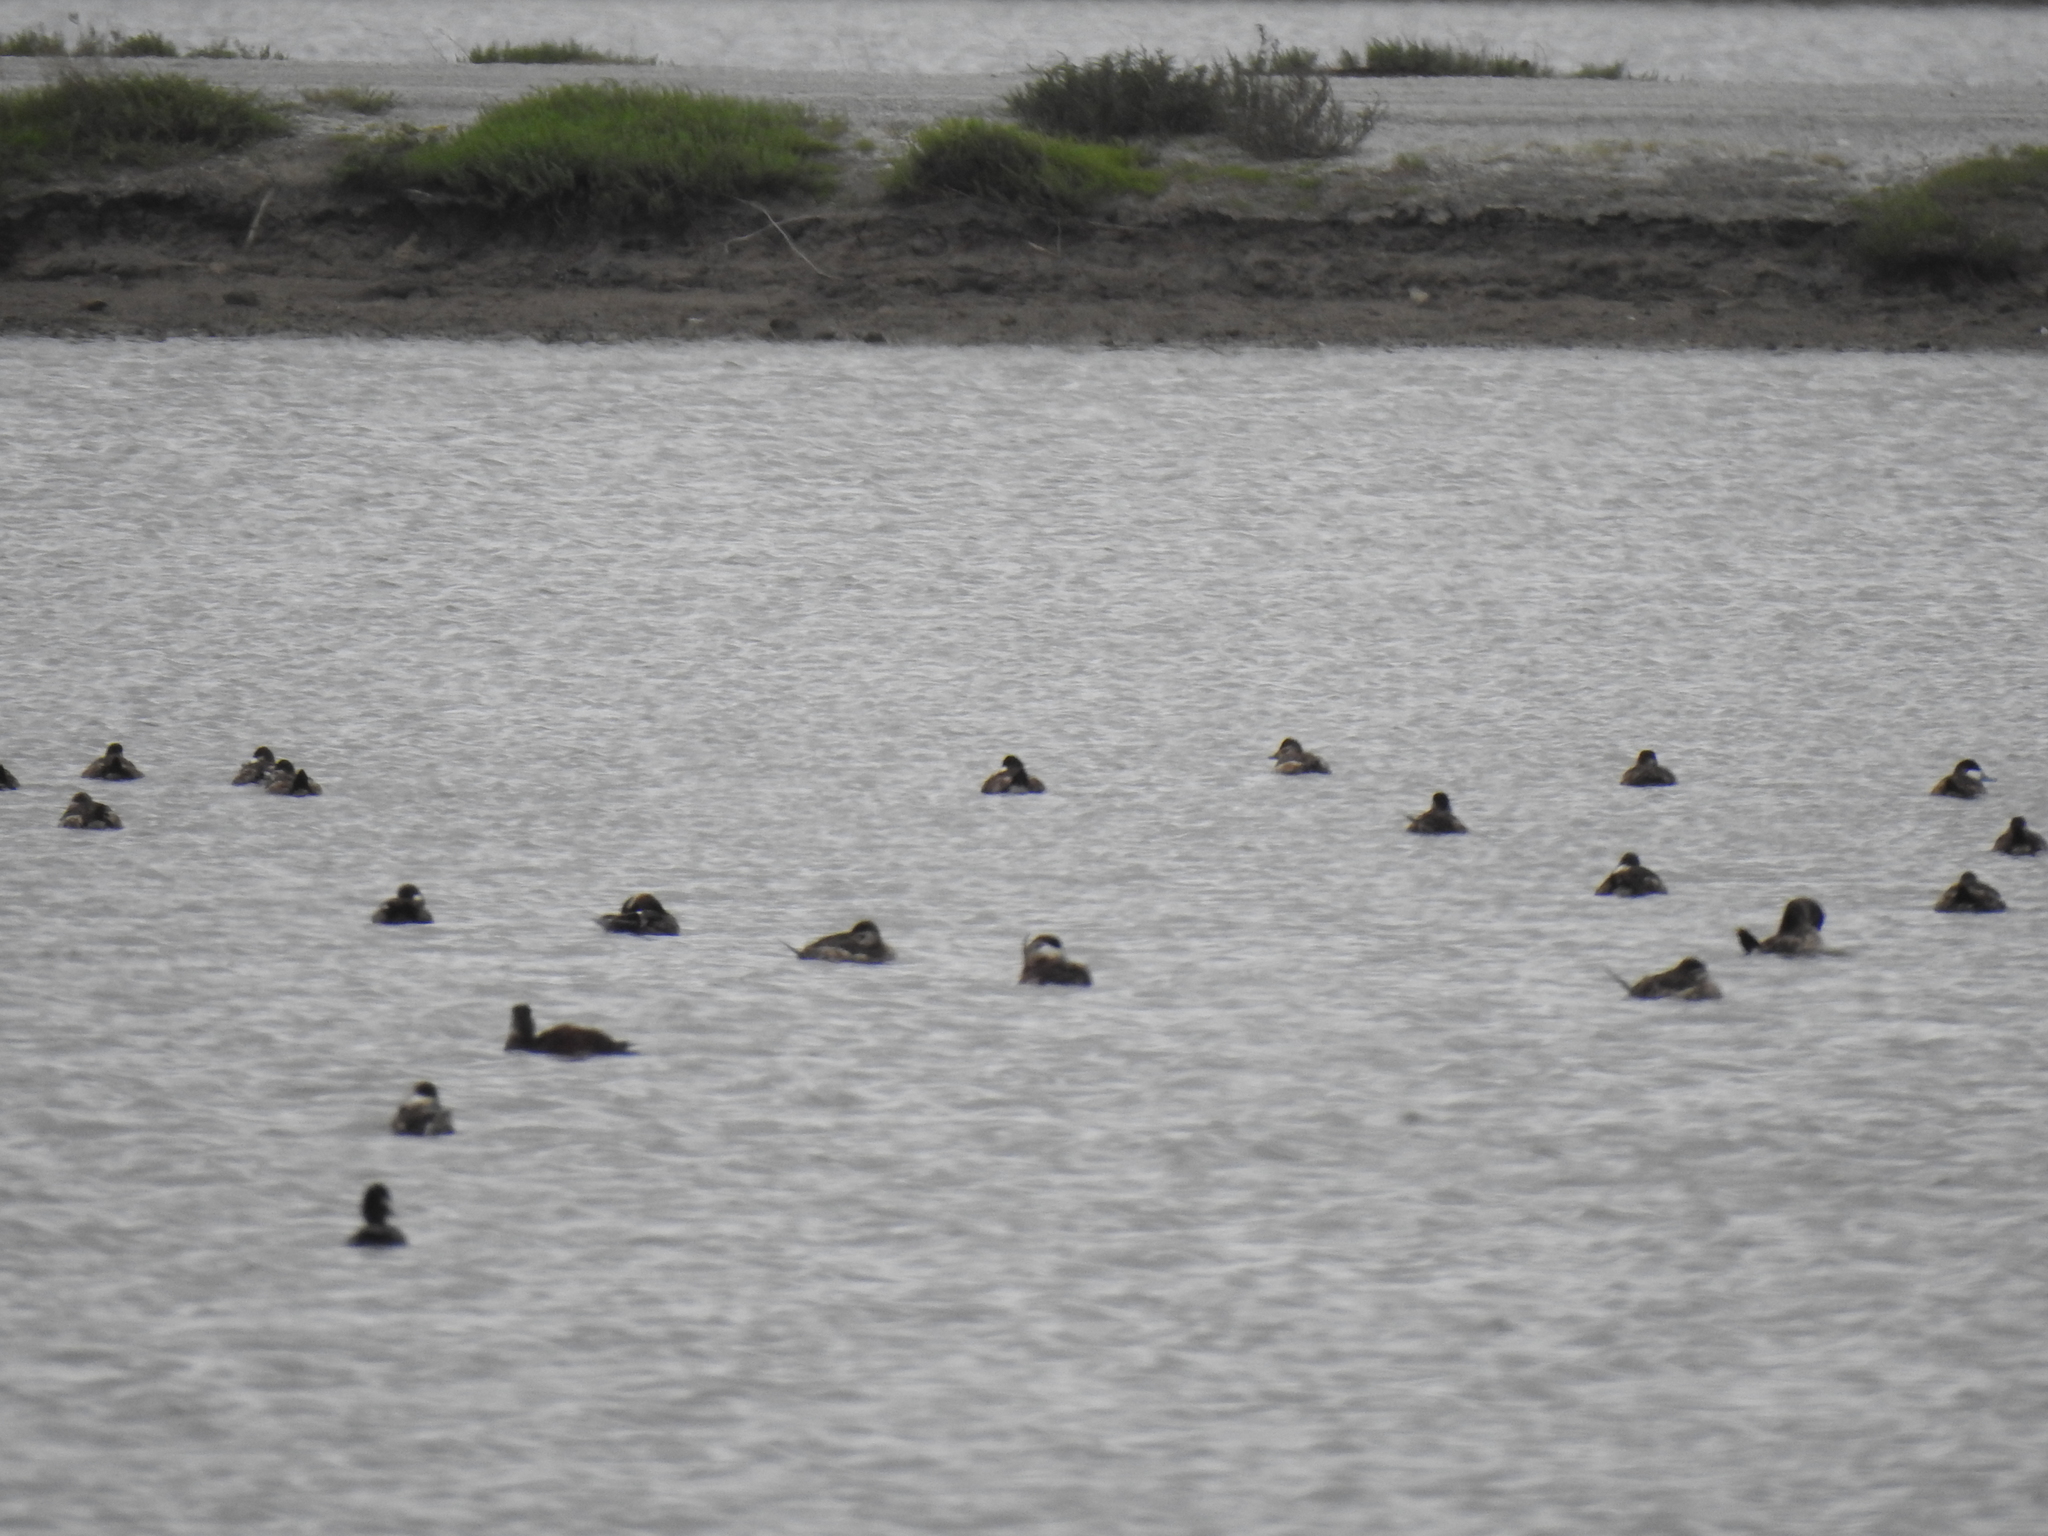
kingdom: Animalia
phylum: Chordata
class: Aves
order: Anseriformes
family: Anatidae
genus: Oxyura
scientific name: Oxyura jamaicensis
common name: Ruddy duck
